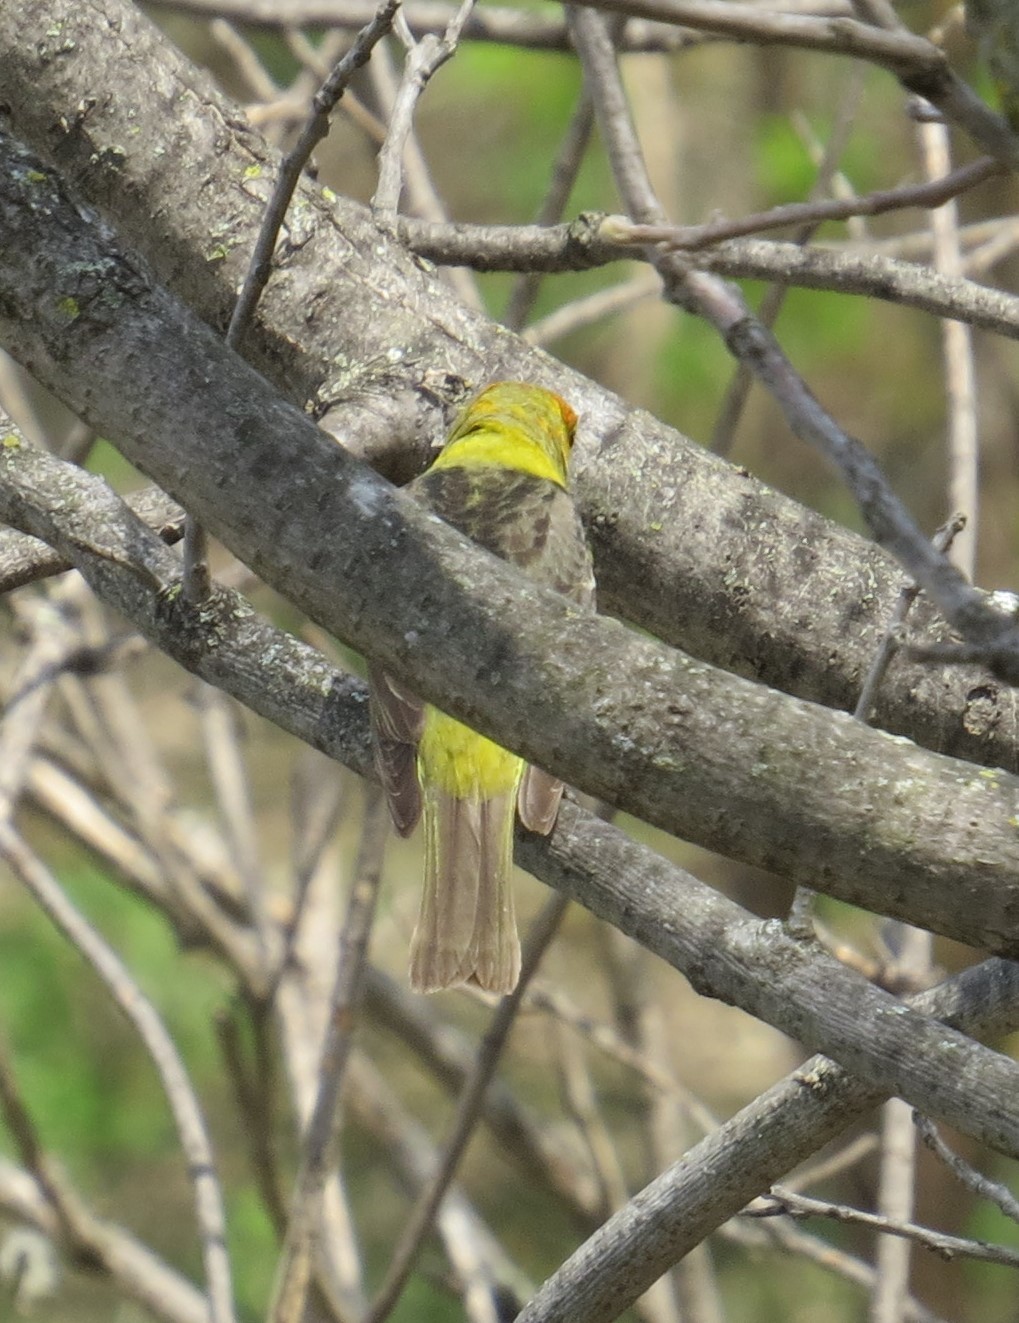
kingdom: Animalia
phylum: Chordata
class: Aves
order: Passeriformes
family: Cardinalidae
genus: Piranga
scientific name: Piranga ludoviciana
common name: Western tanager
